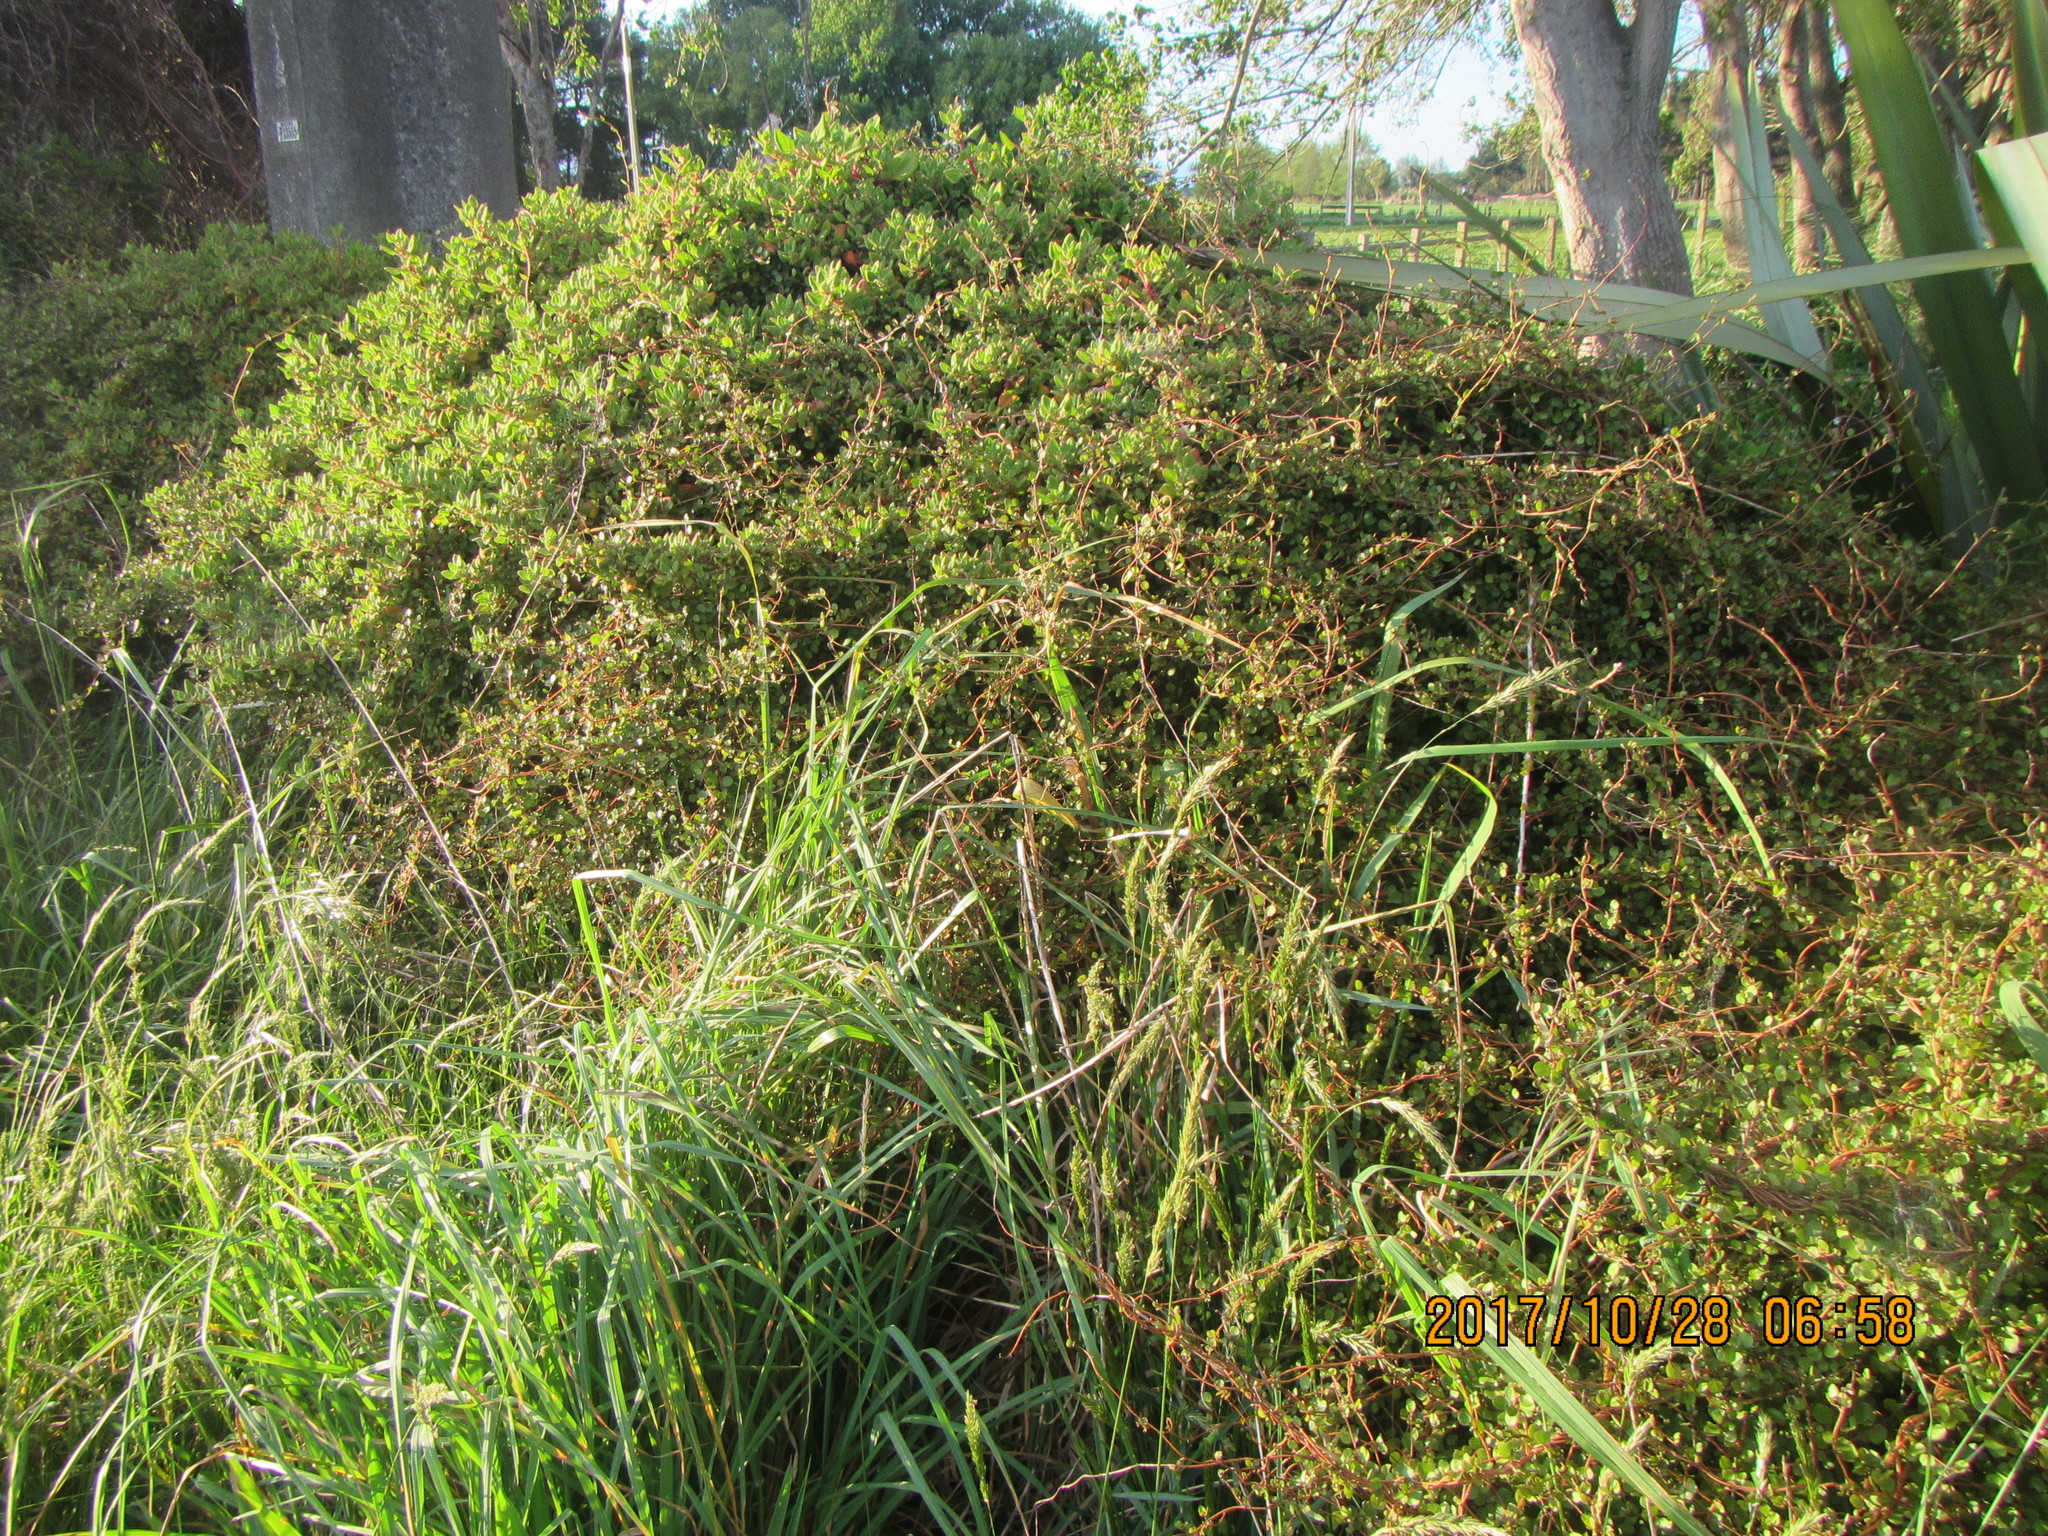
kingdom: Animalia
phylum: Arthropoda
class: Arachnida
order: Araneae
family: Araneidae
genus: Eriophora
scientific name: Eriophora pustulosa
